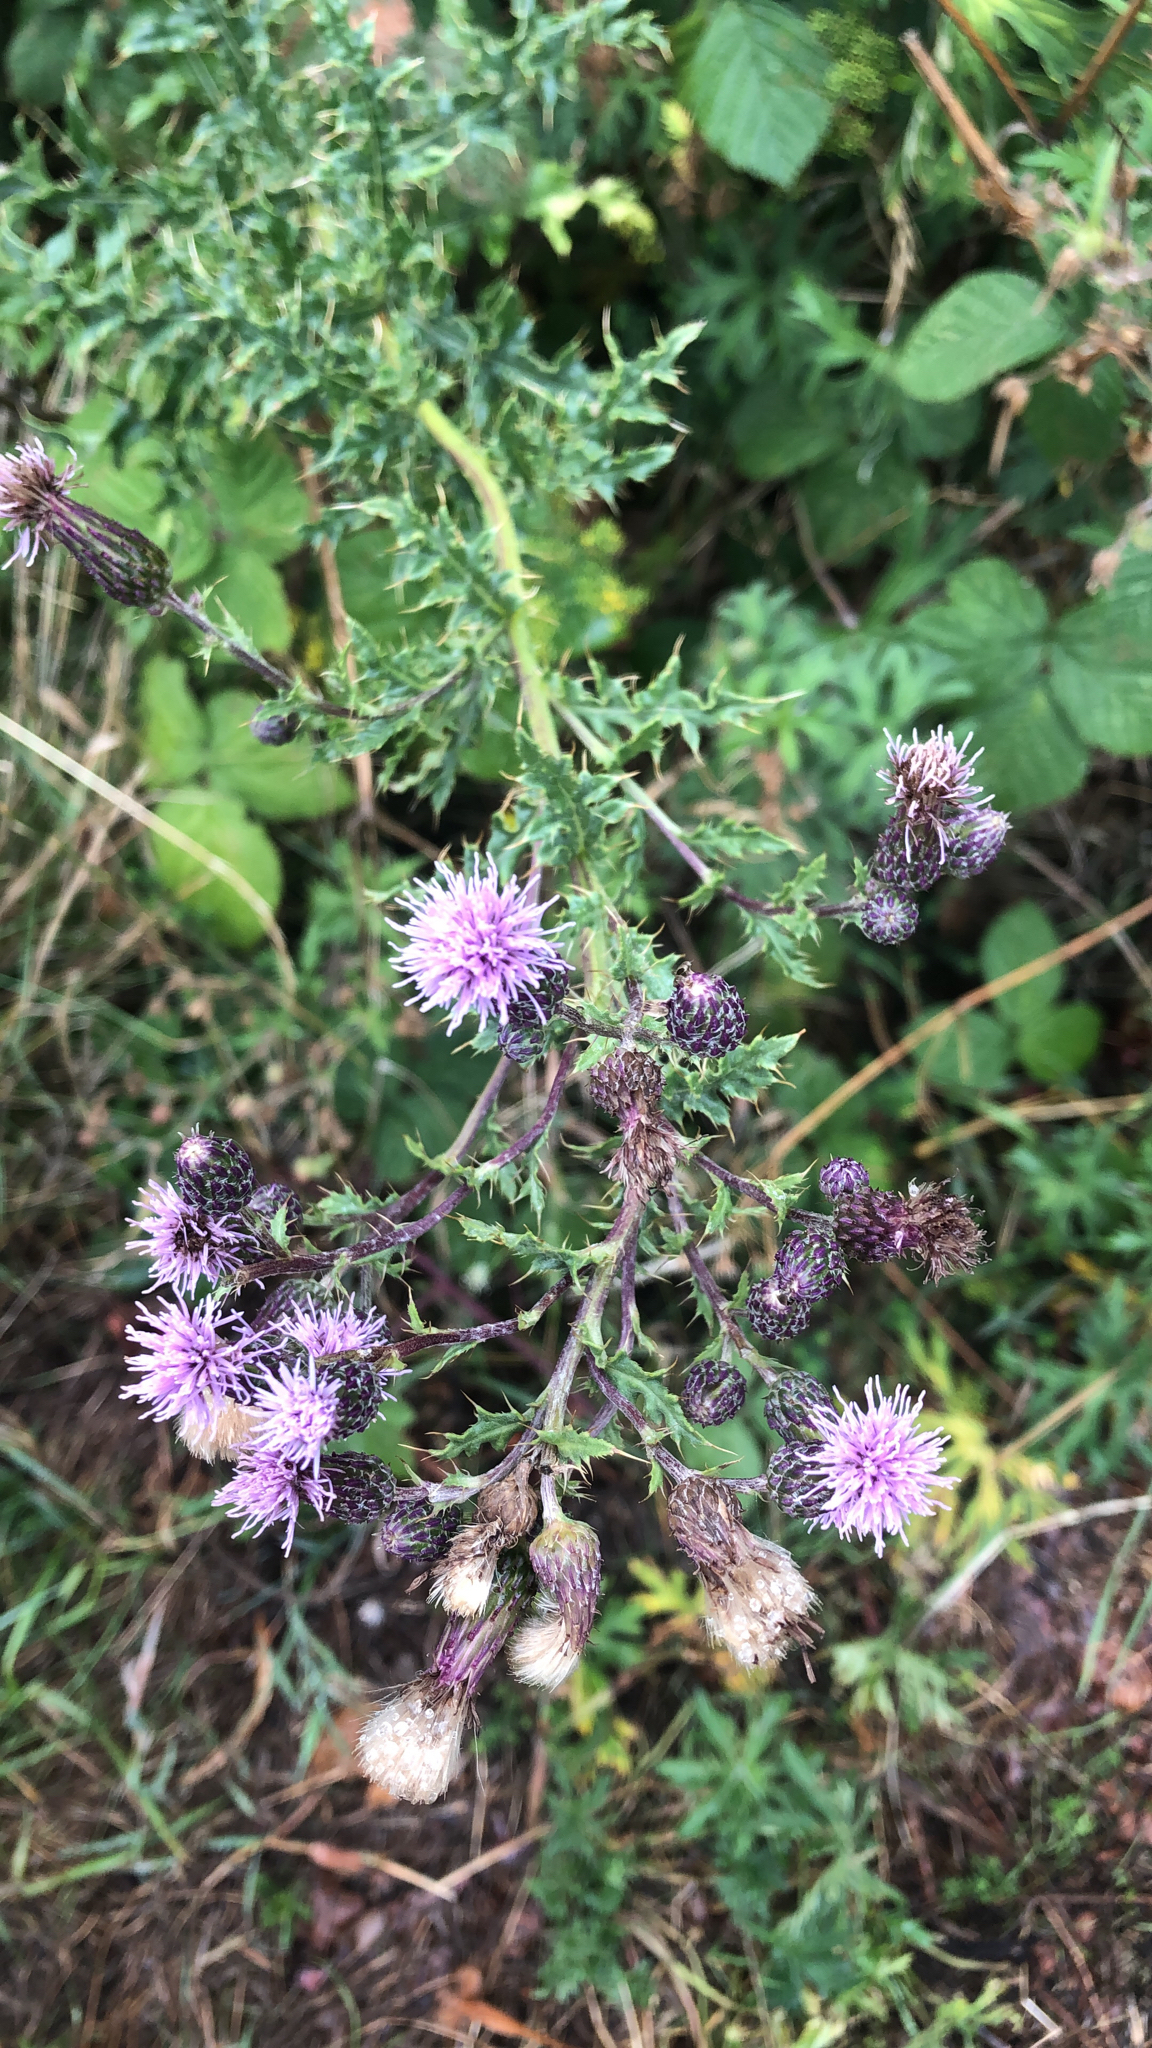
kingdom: Plantae
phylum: Tracheophyta
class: Magnoliopsida
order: Asterales
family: Asteraceae
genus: Cirsium
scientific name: Cirsium arvense
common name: Creeping thistle
